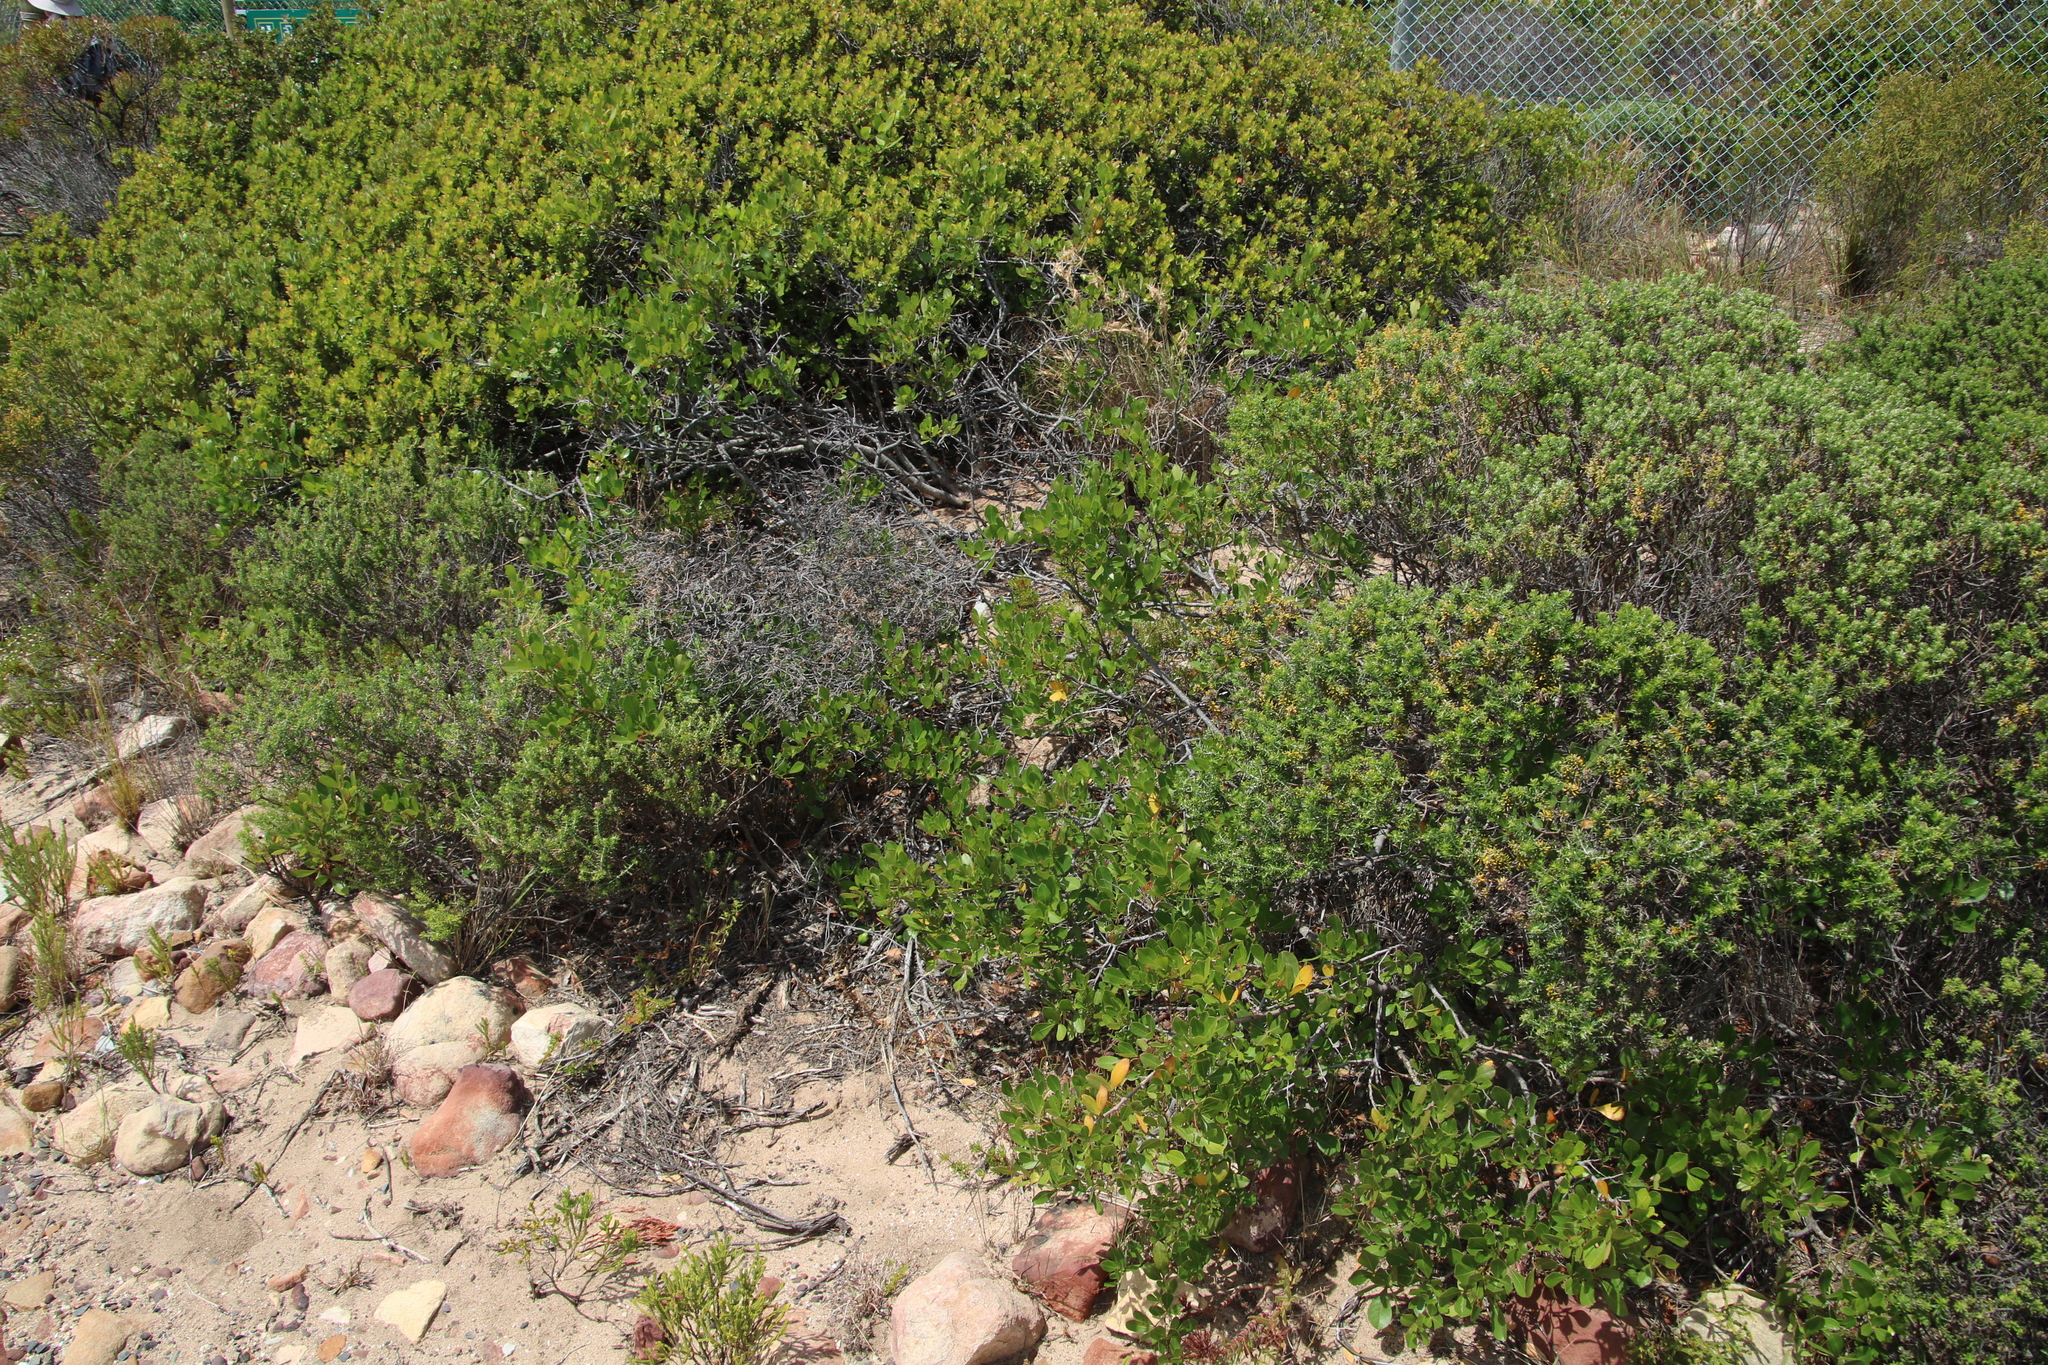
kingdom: Plantae
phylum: Tracheophyta
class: Magnoliopsida
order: Sapindales
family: Anacardiaceae
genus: Searsia
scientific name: Searsia laevigata
